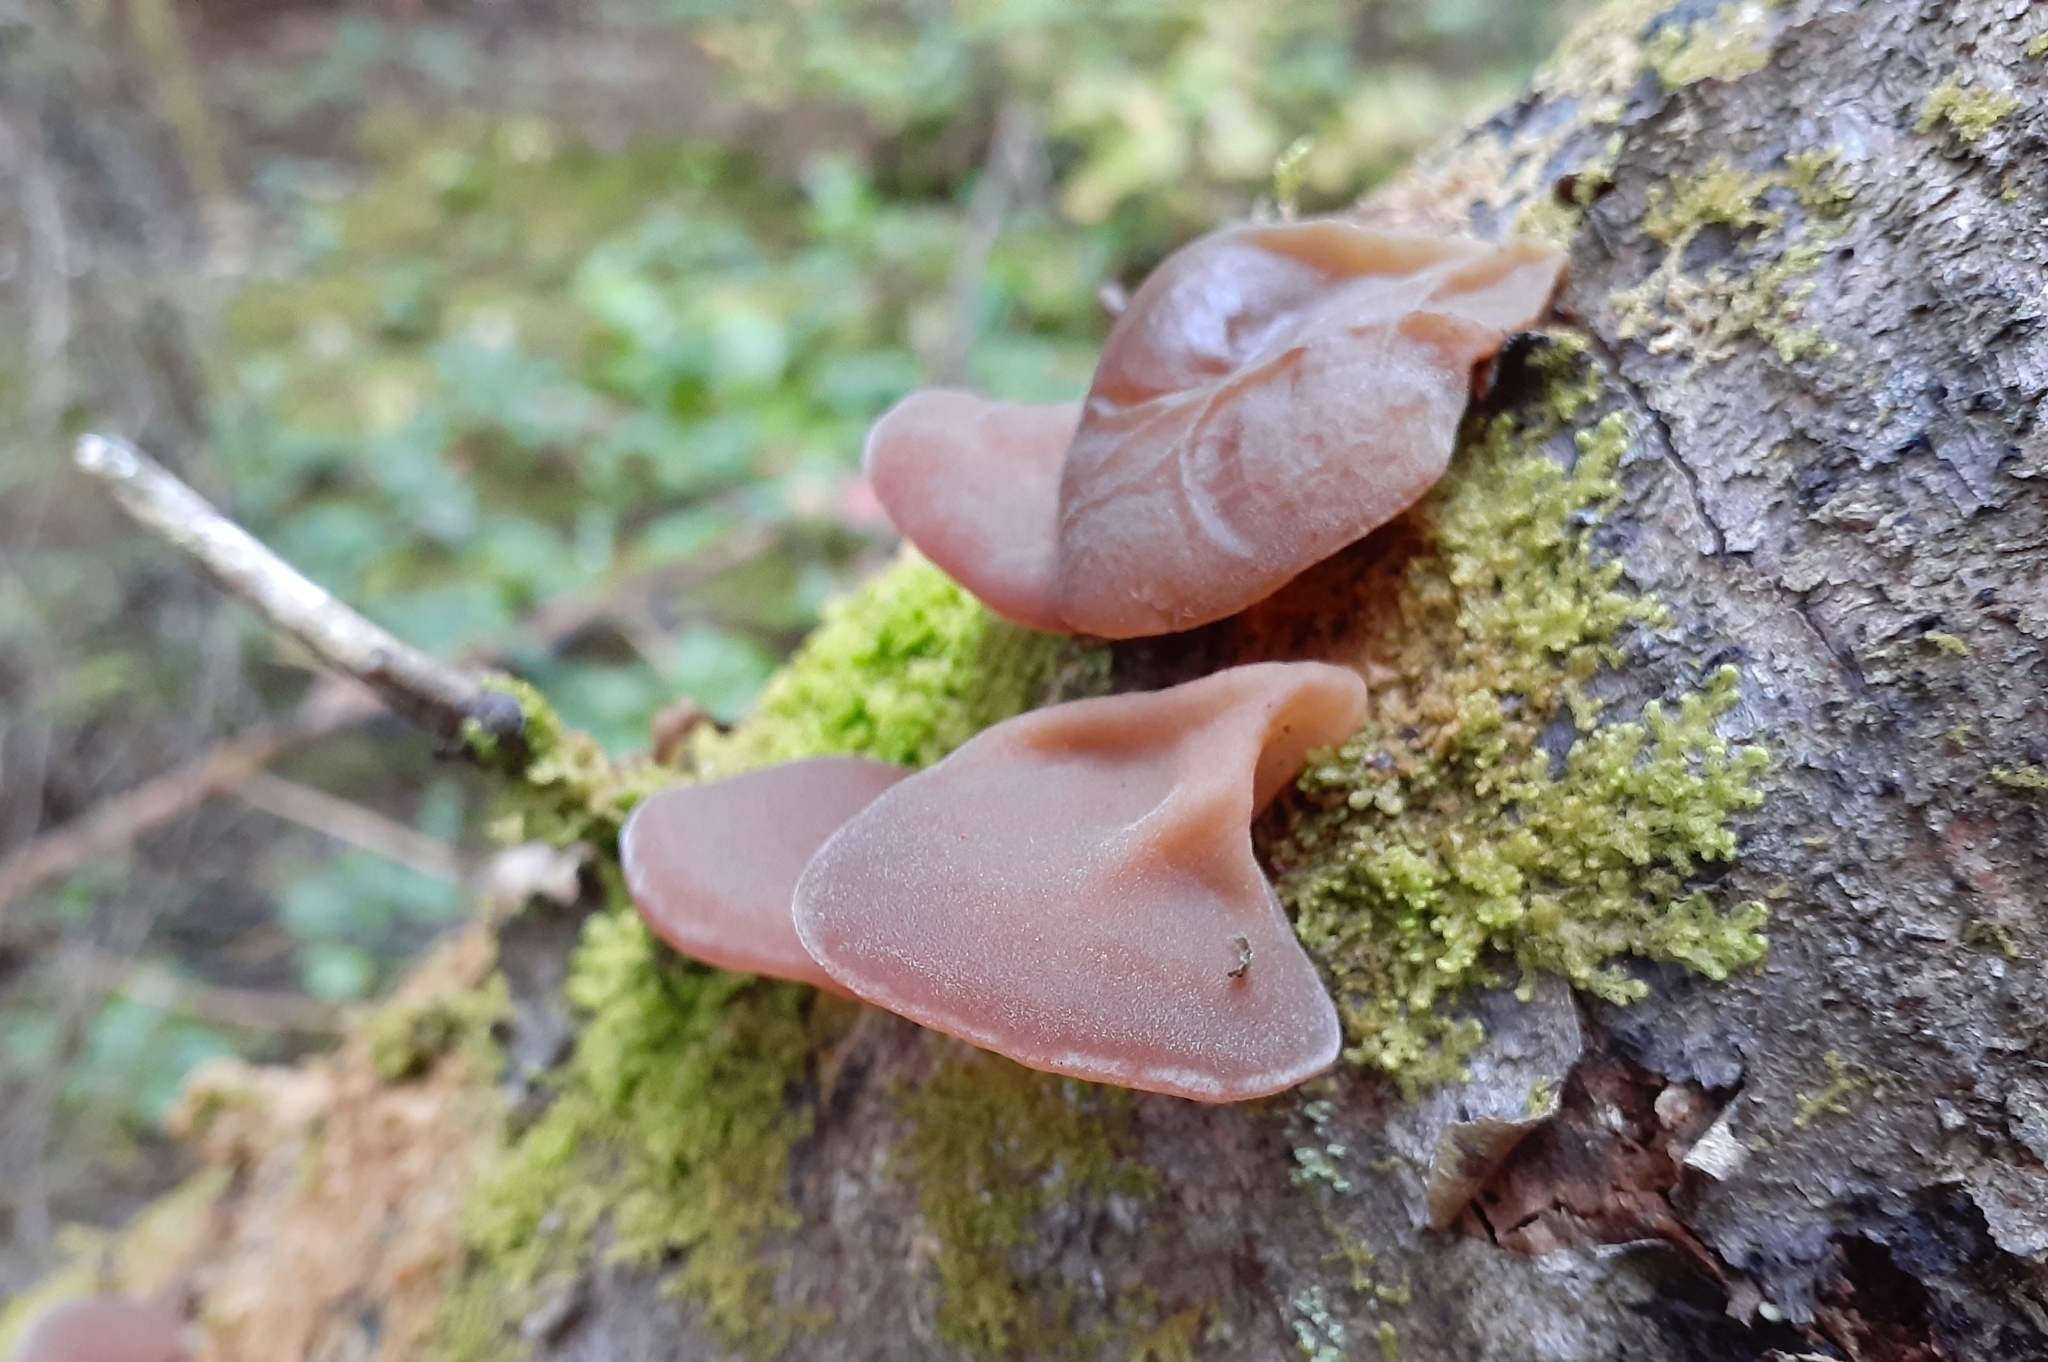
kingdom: Fungi
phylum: Basidiomycota
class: Agaricomycetes
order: Auriculariales
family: Auriculariaceae
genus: Auricularia
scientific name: Auricularia americana
